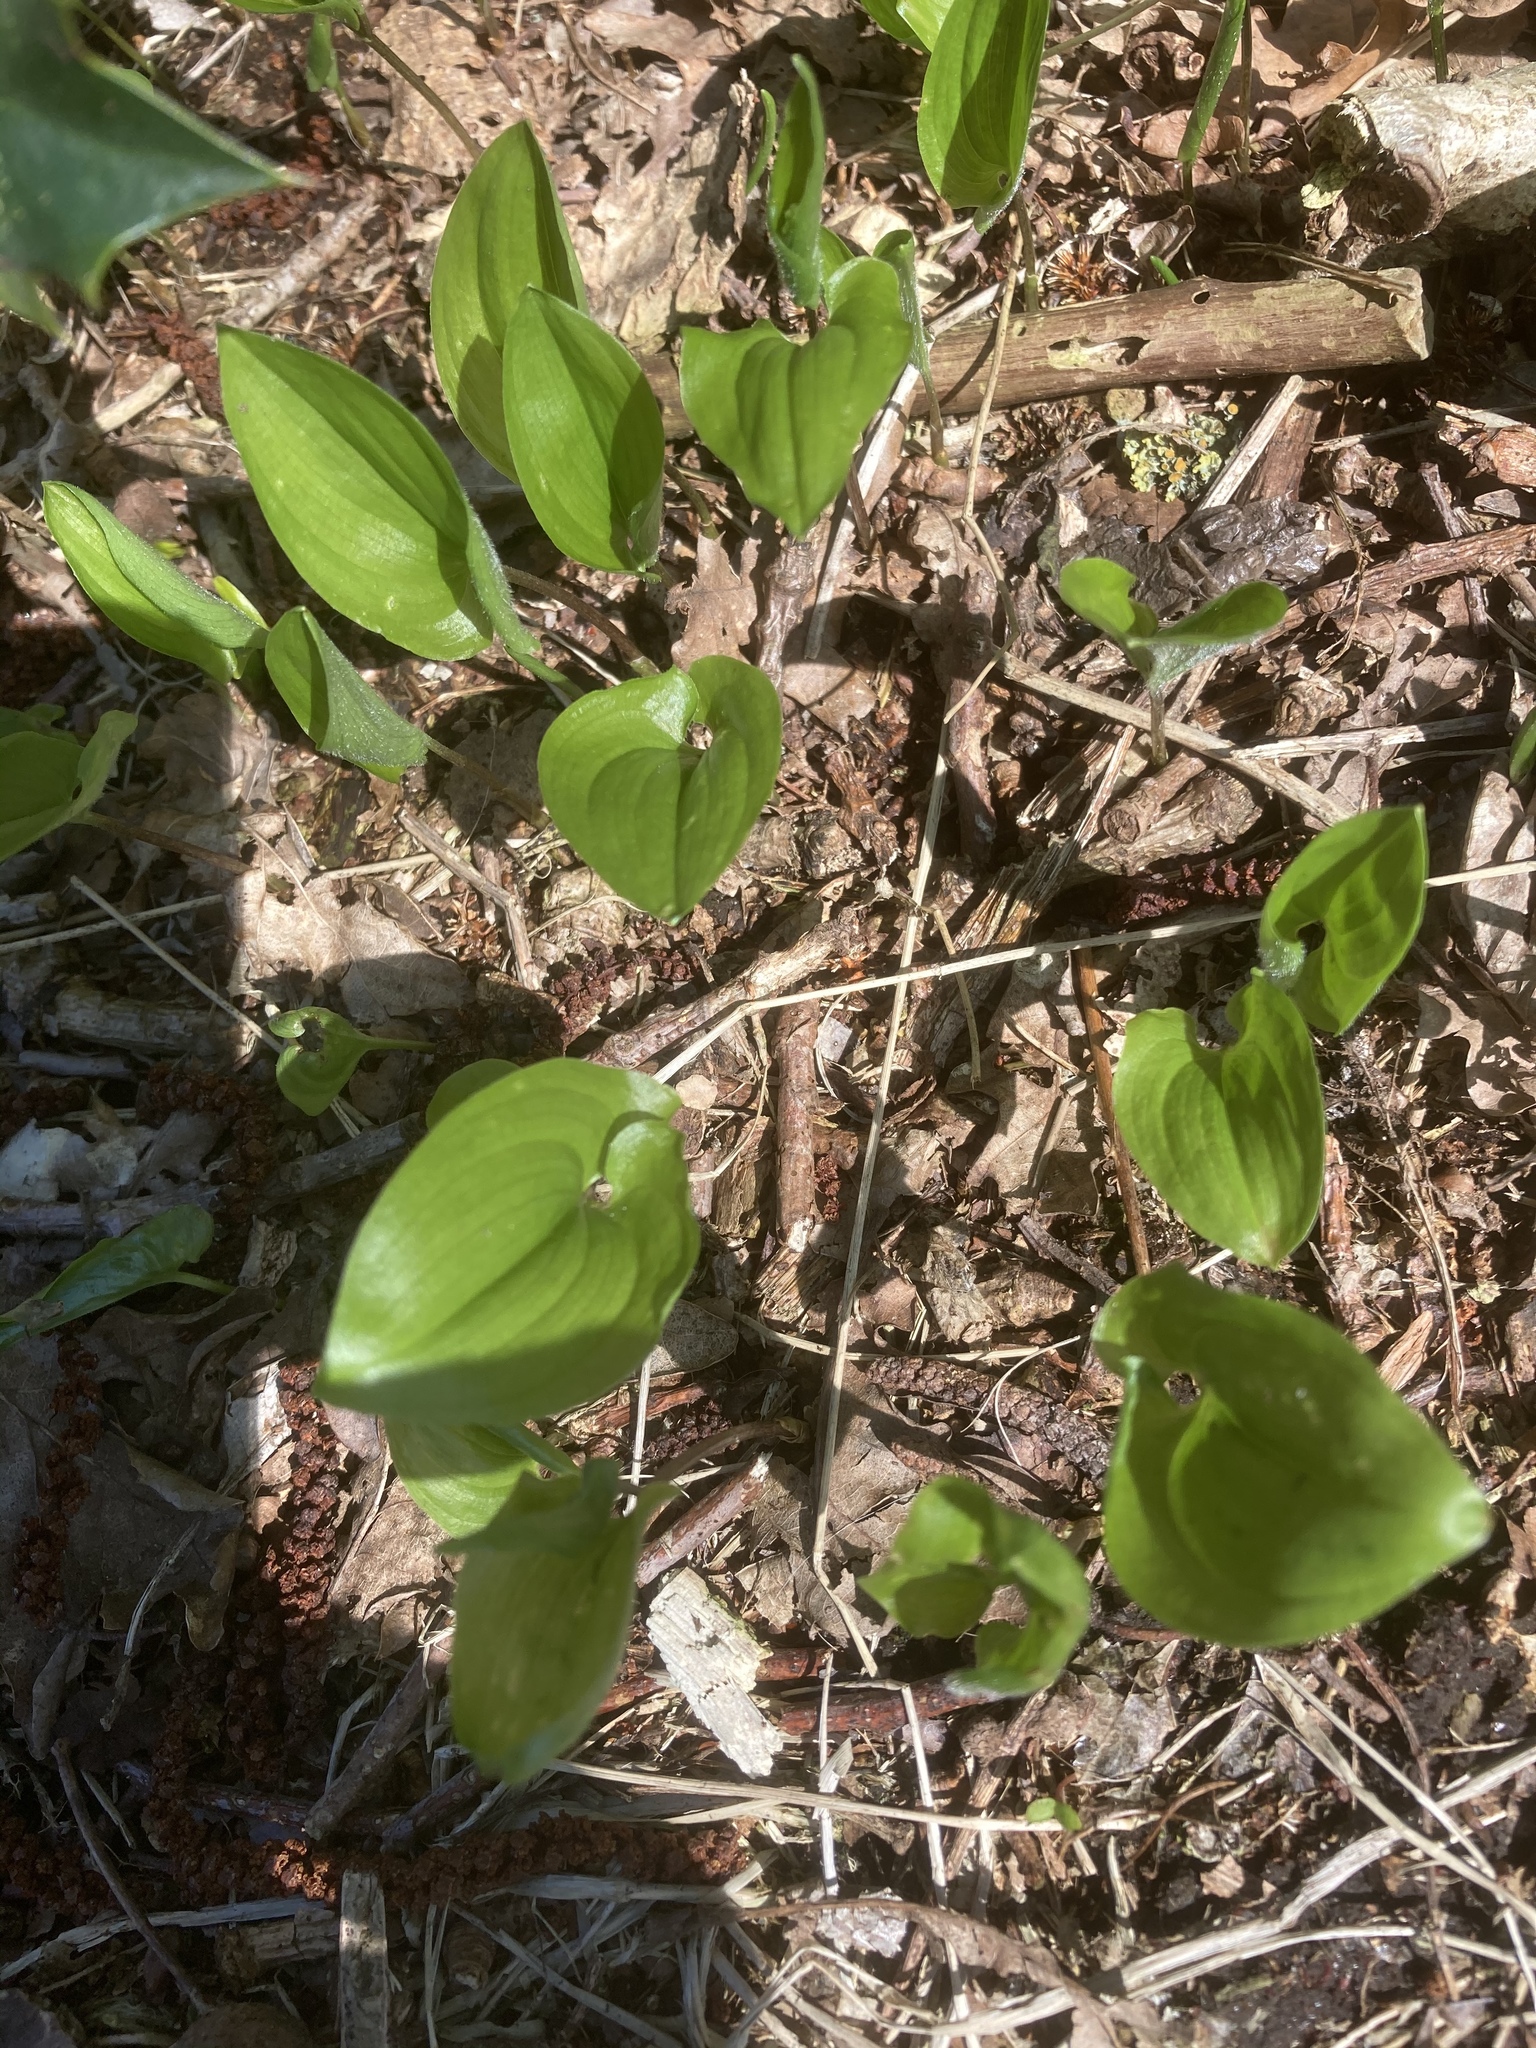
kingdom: Plantae
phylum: Tracheophyta
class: Liliopsida
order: Asparagales
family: Asparagaceae
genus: Maianthemum
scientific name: Maianthemum bifolium
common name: May lily
